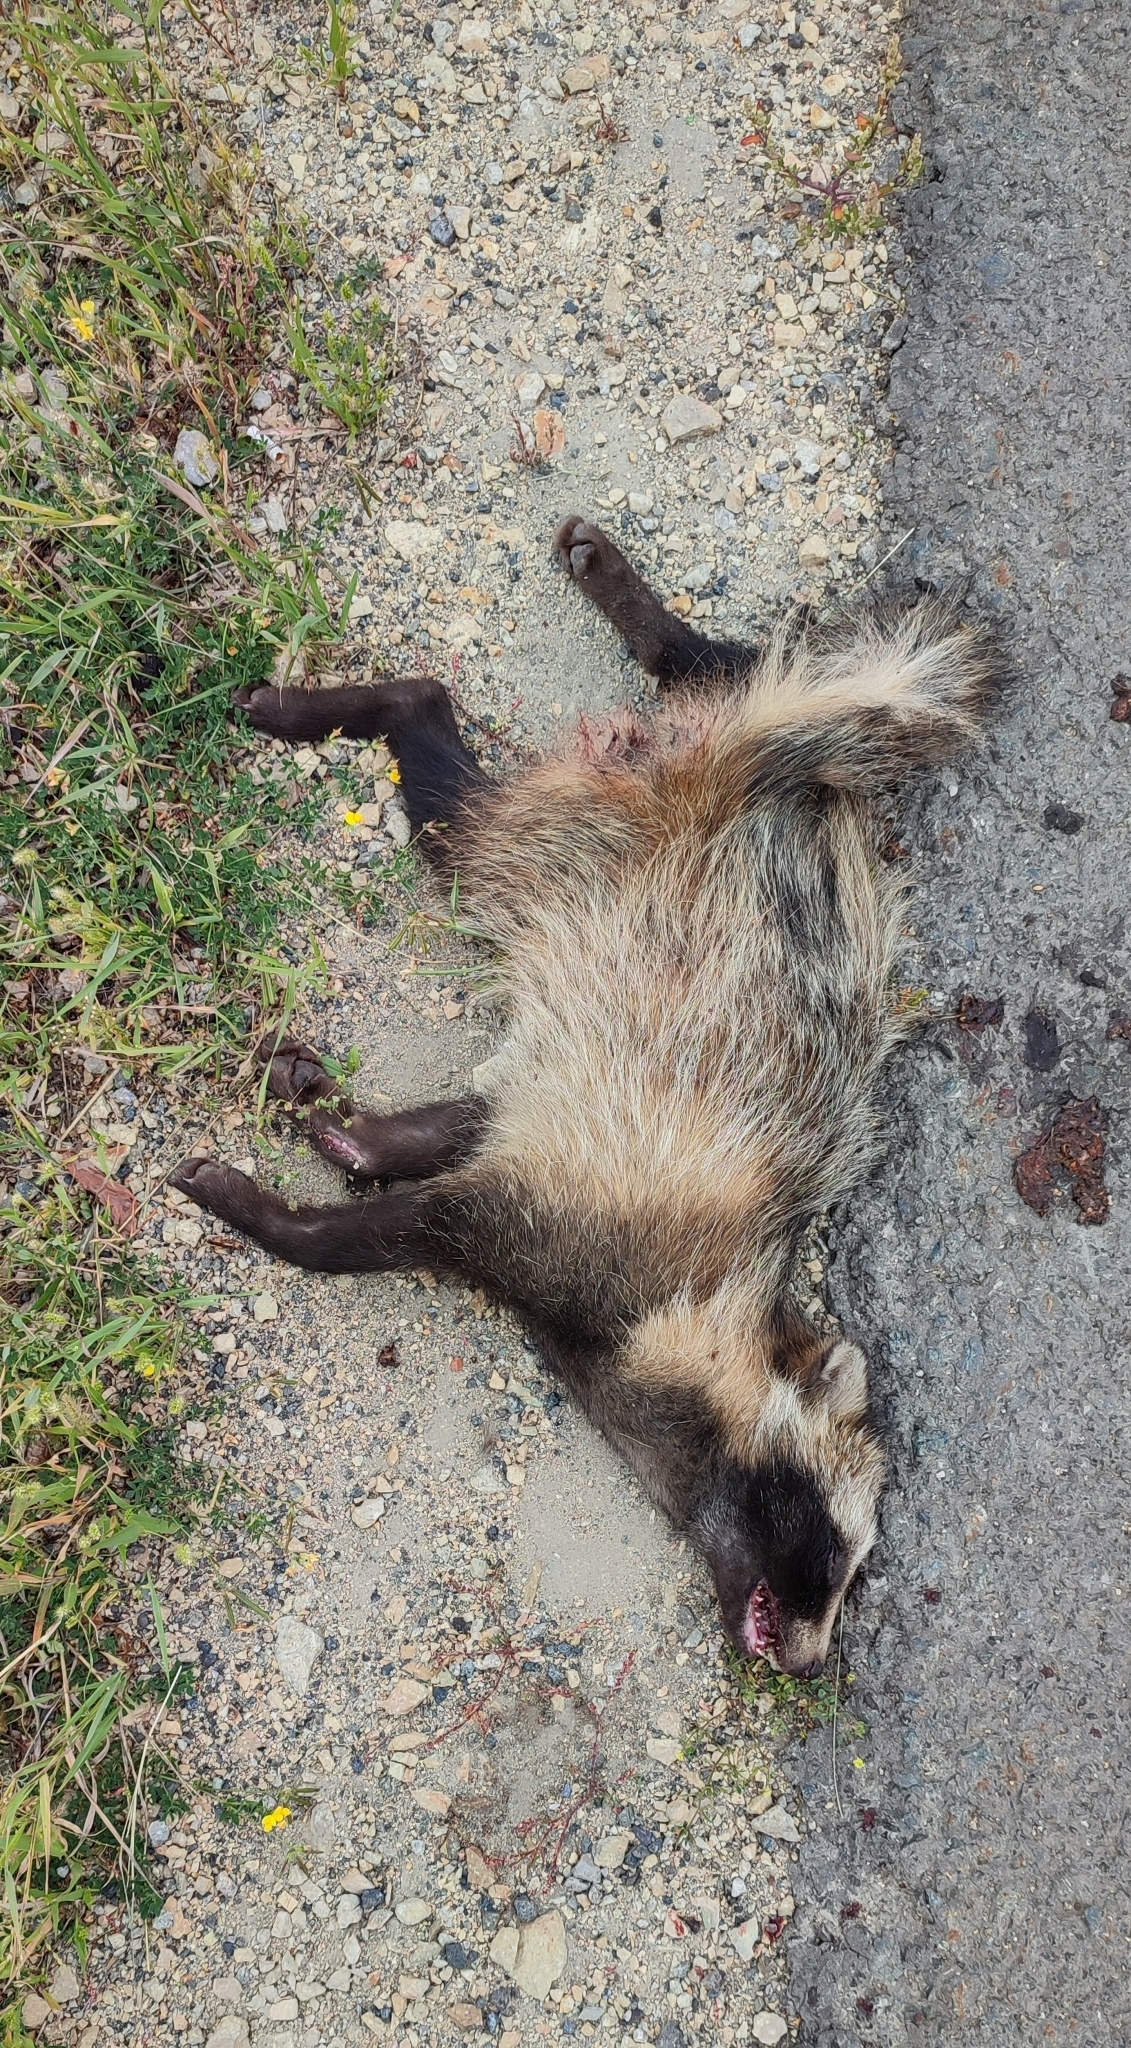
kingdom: Animalia
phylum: Chordata
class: Mammalia
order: Carnivora
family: Canidae
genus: Nyctereutes
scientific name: Nyctereutes procyonoides
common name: Raccoon dog
